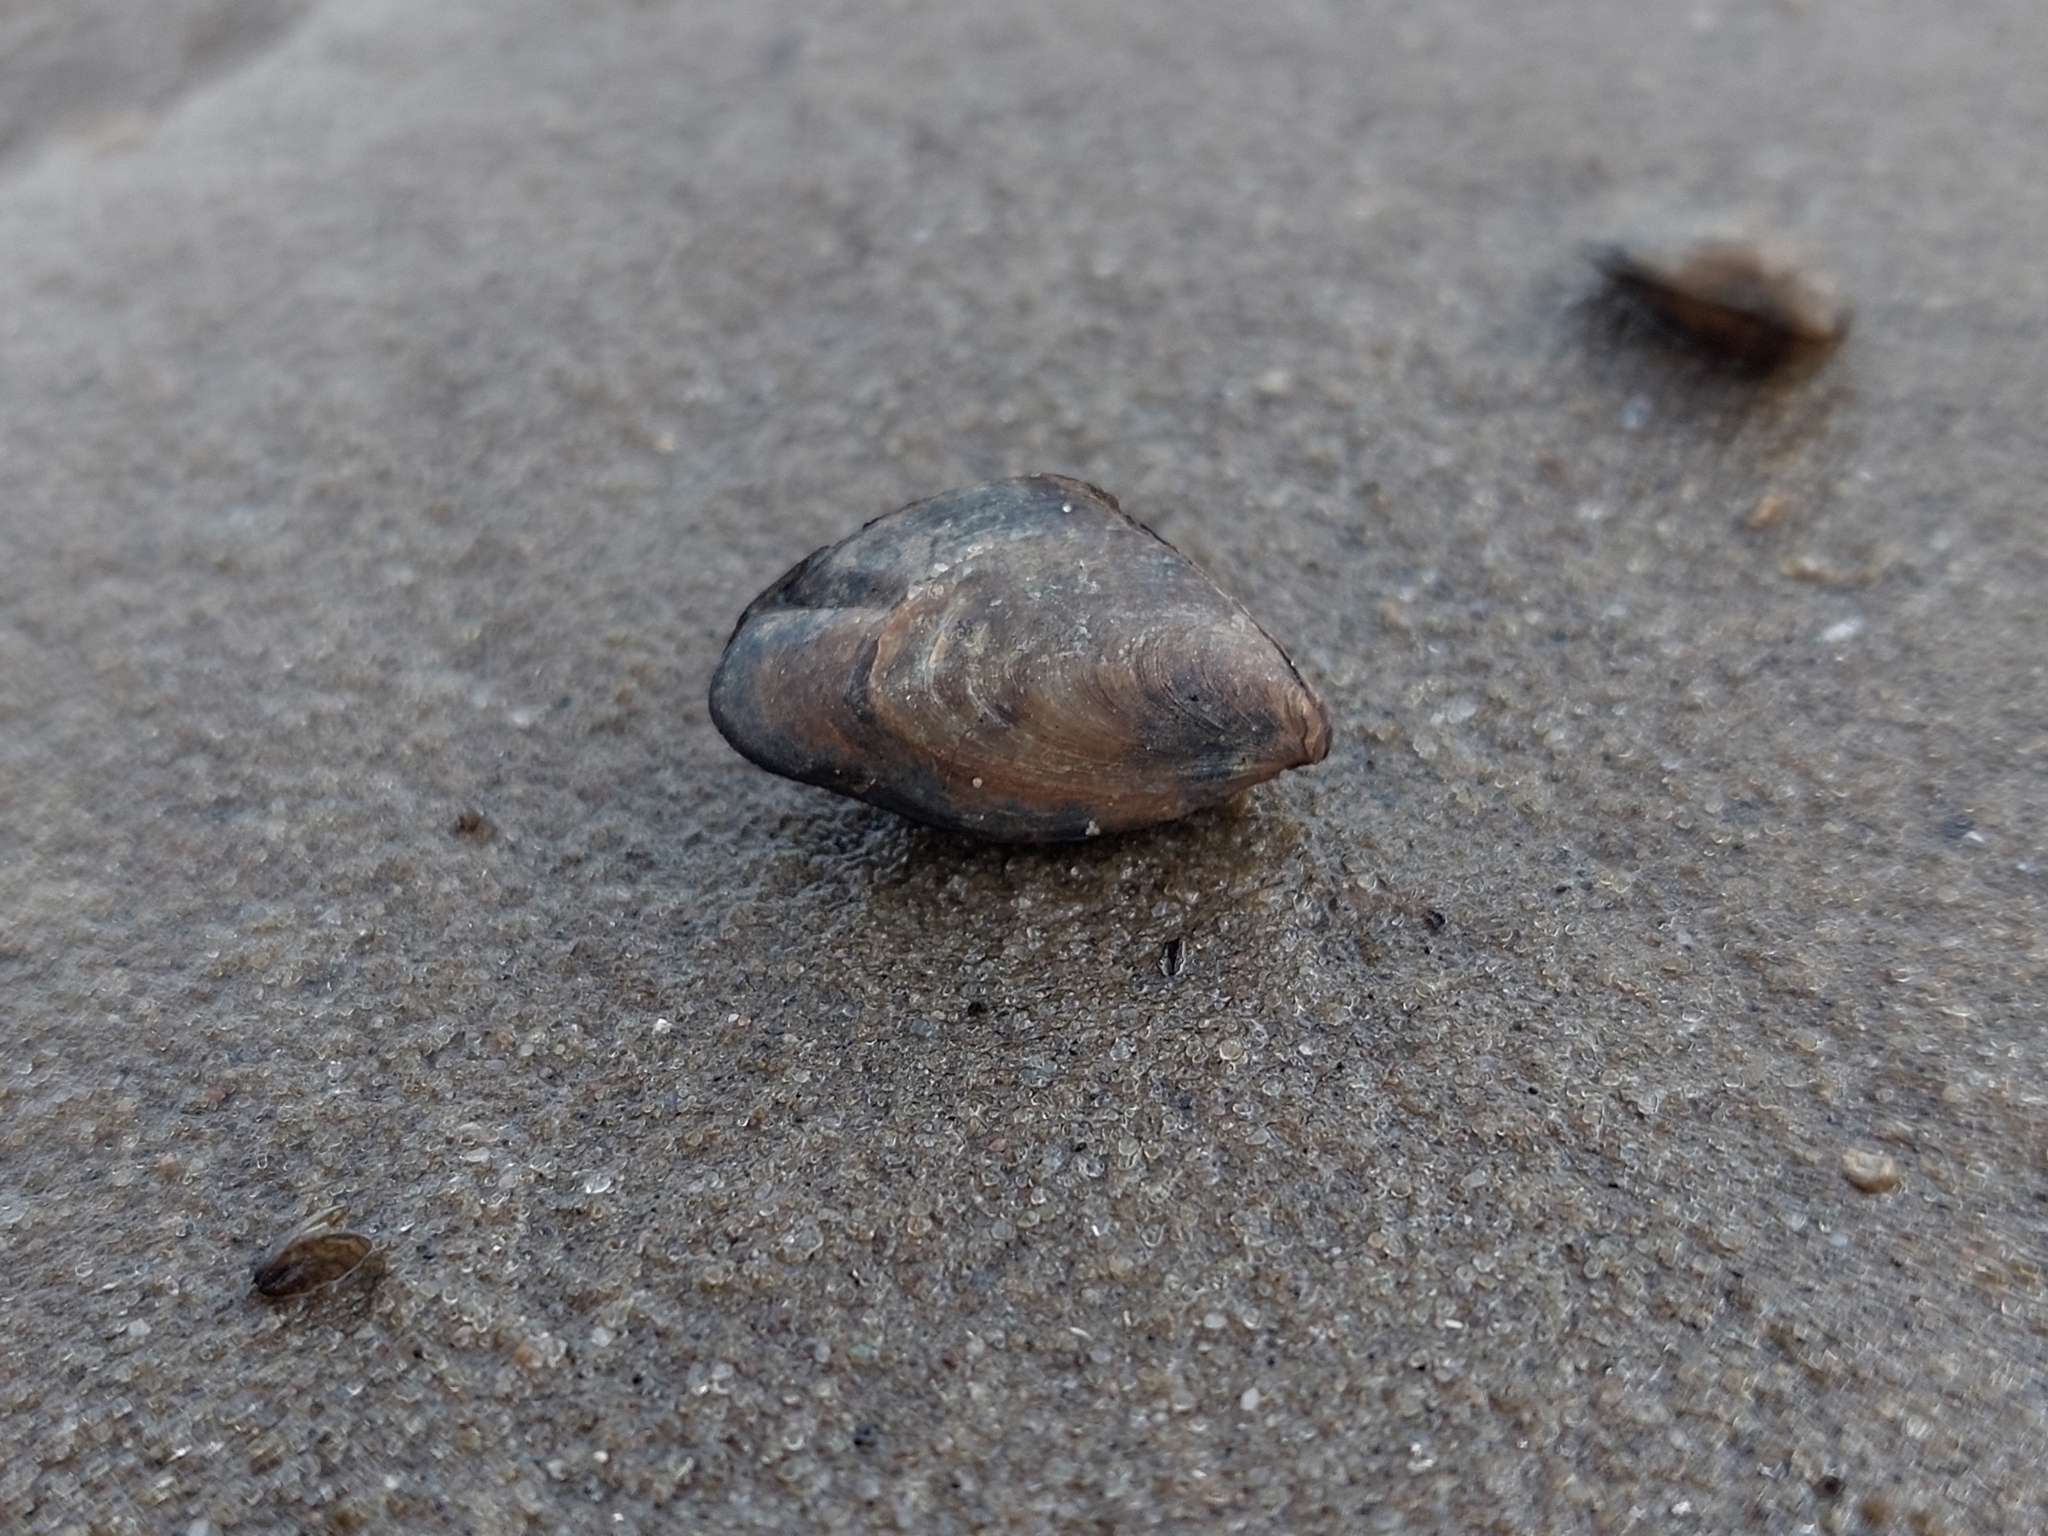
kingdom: Animalia
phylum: Mollusca
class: Bivalvia
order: Myida
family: Dreissenidae
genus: Dreissena
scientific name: Dreissena bugensis
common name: Quagga mussel
